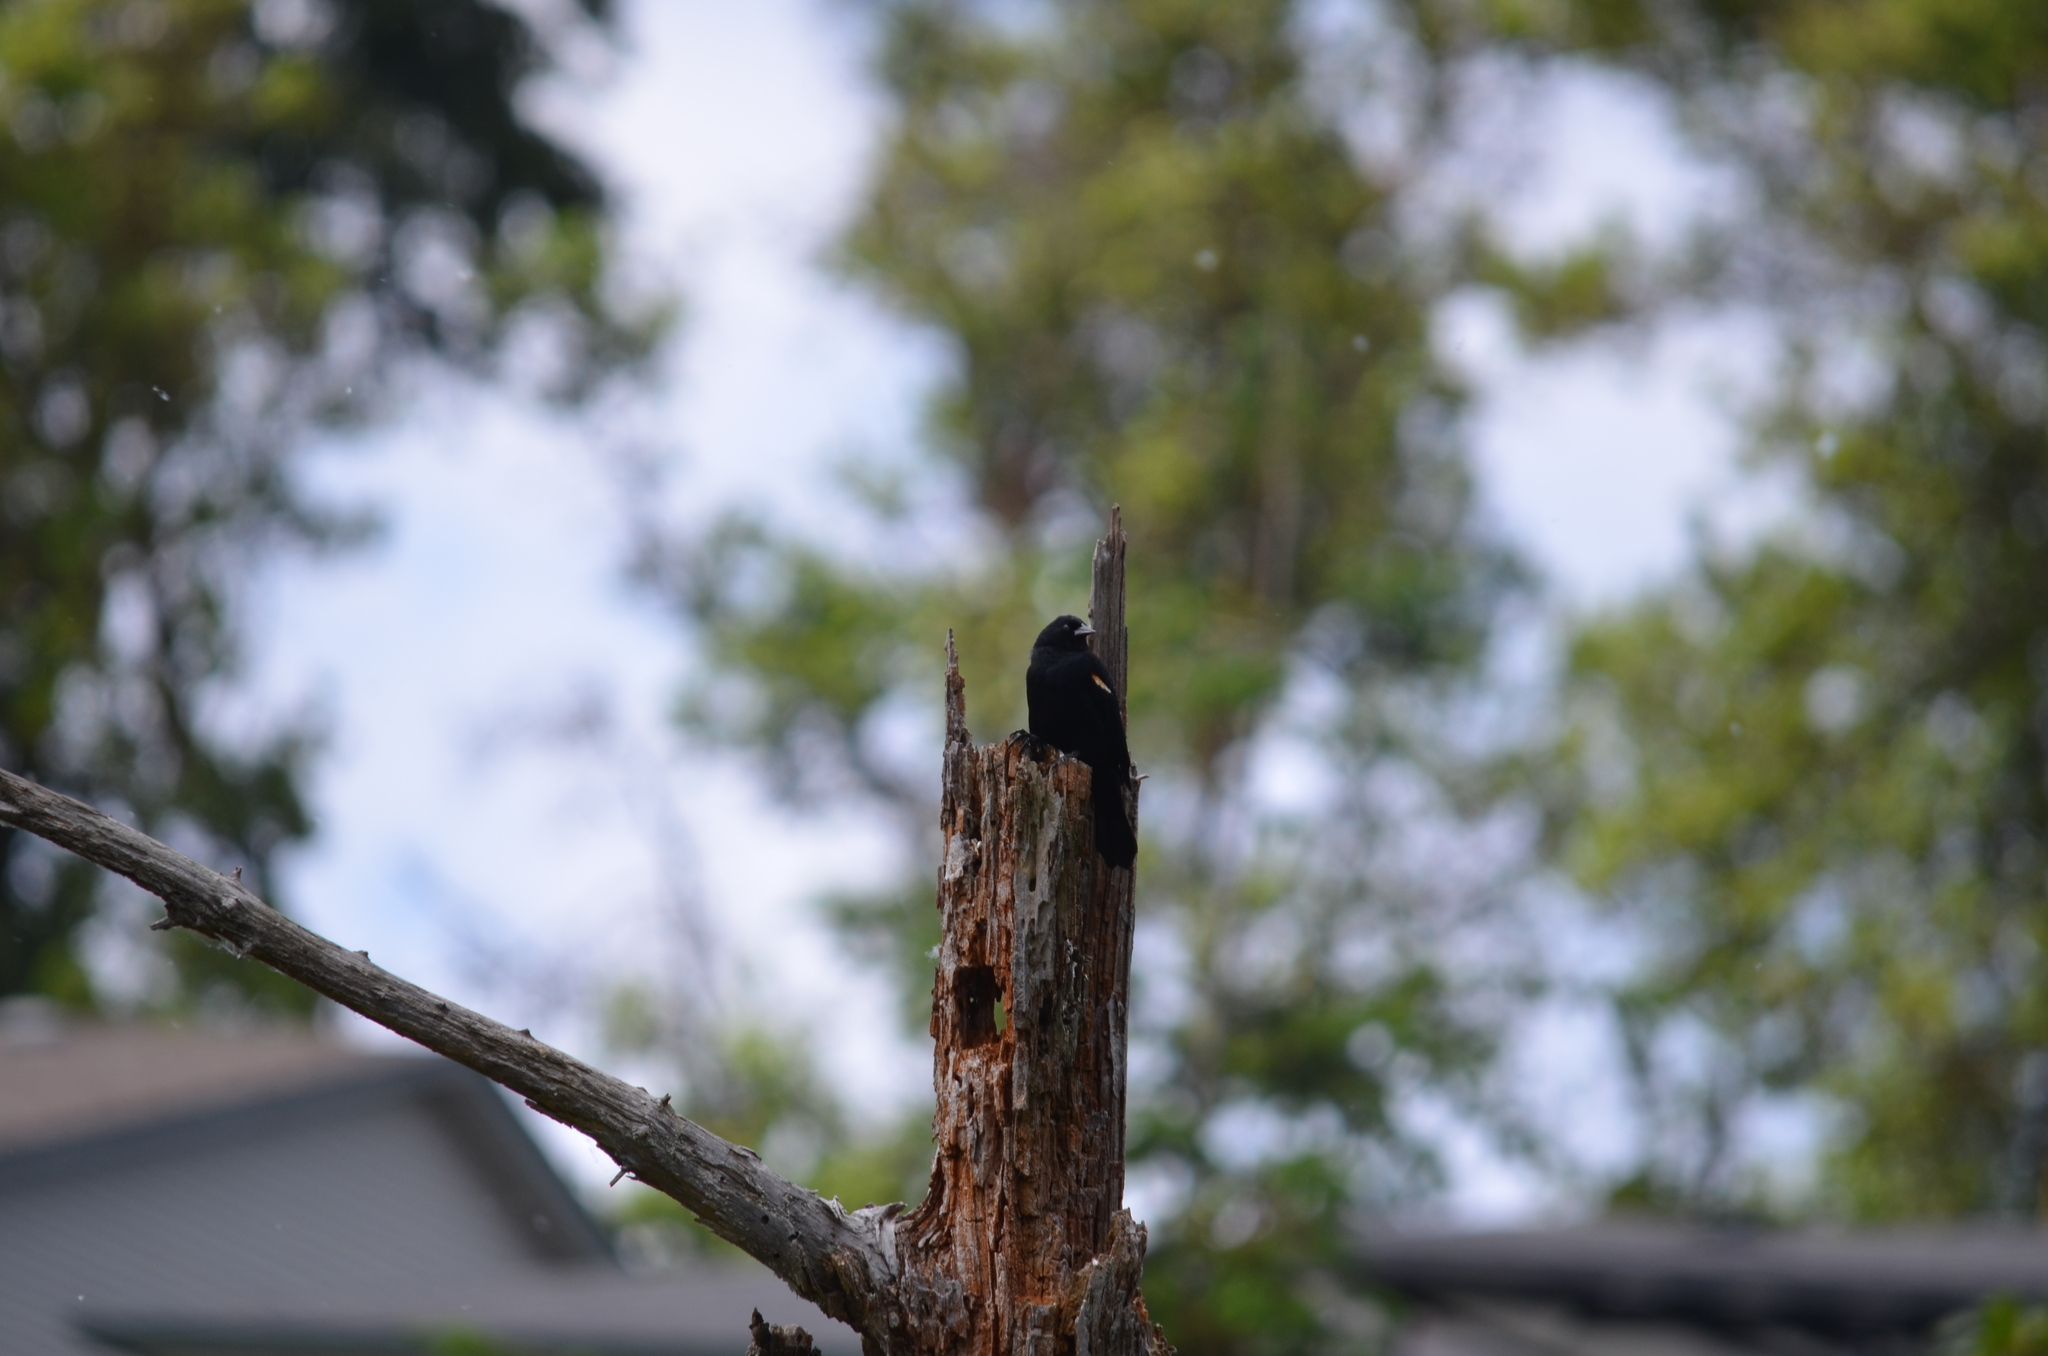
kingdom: Animalia
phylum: Chordata
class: Aves
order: Passeriformes
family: Icteridae
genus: Agelaius
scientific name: Agelaius phoeniceus
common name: Red-winged blackbird
